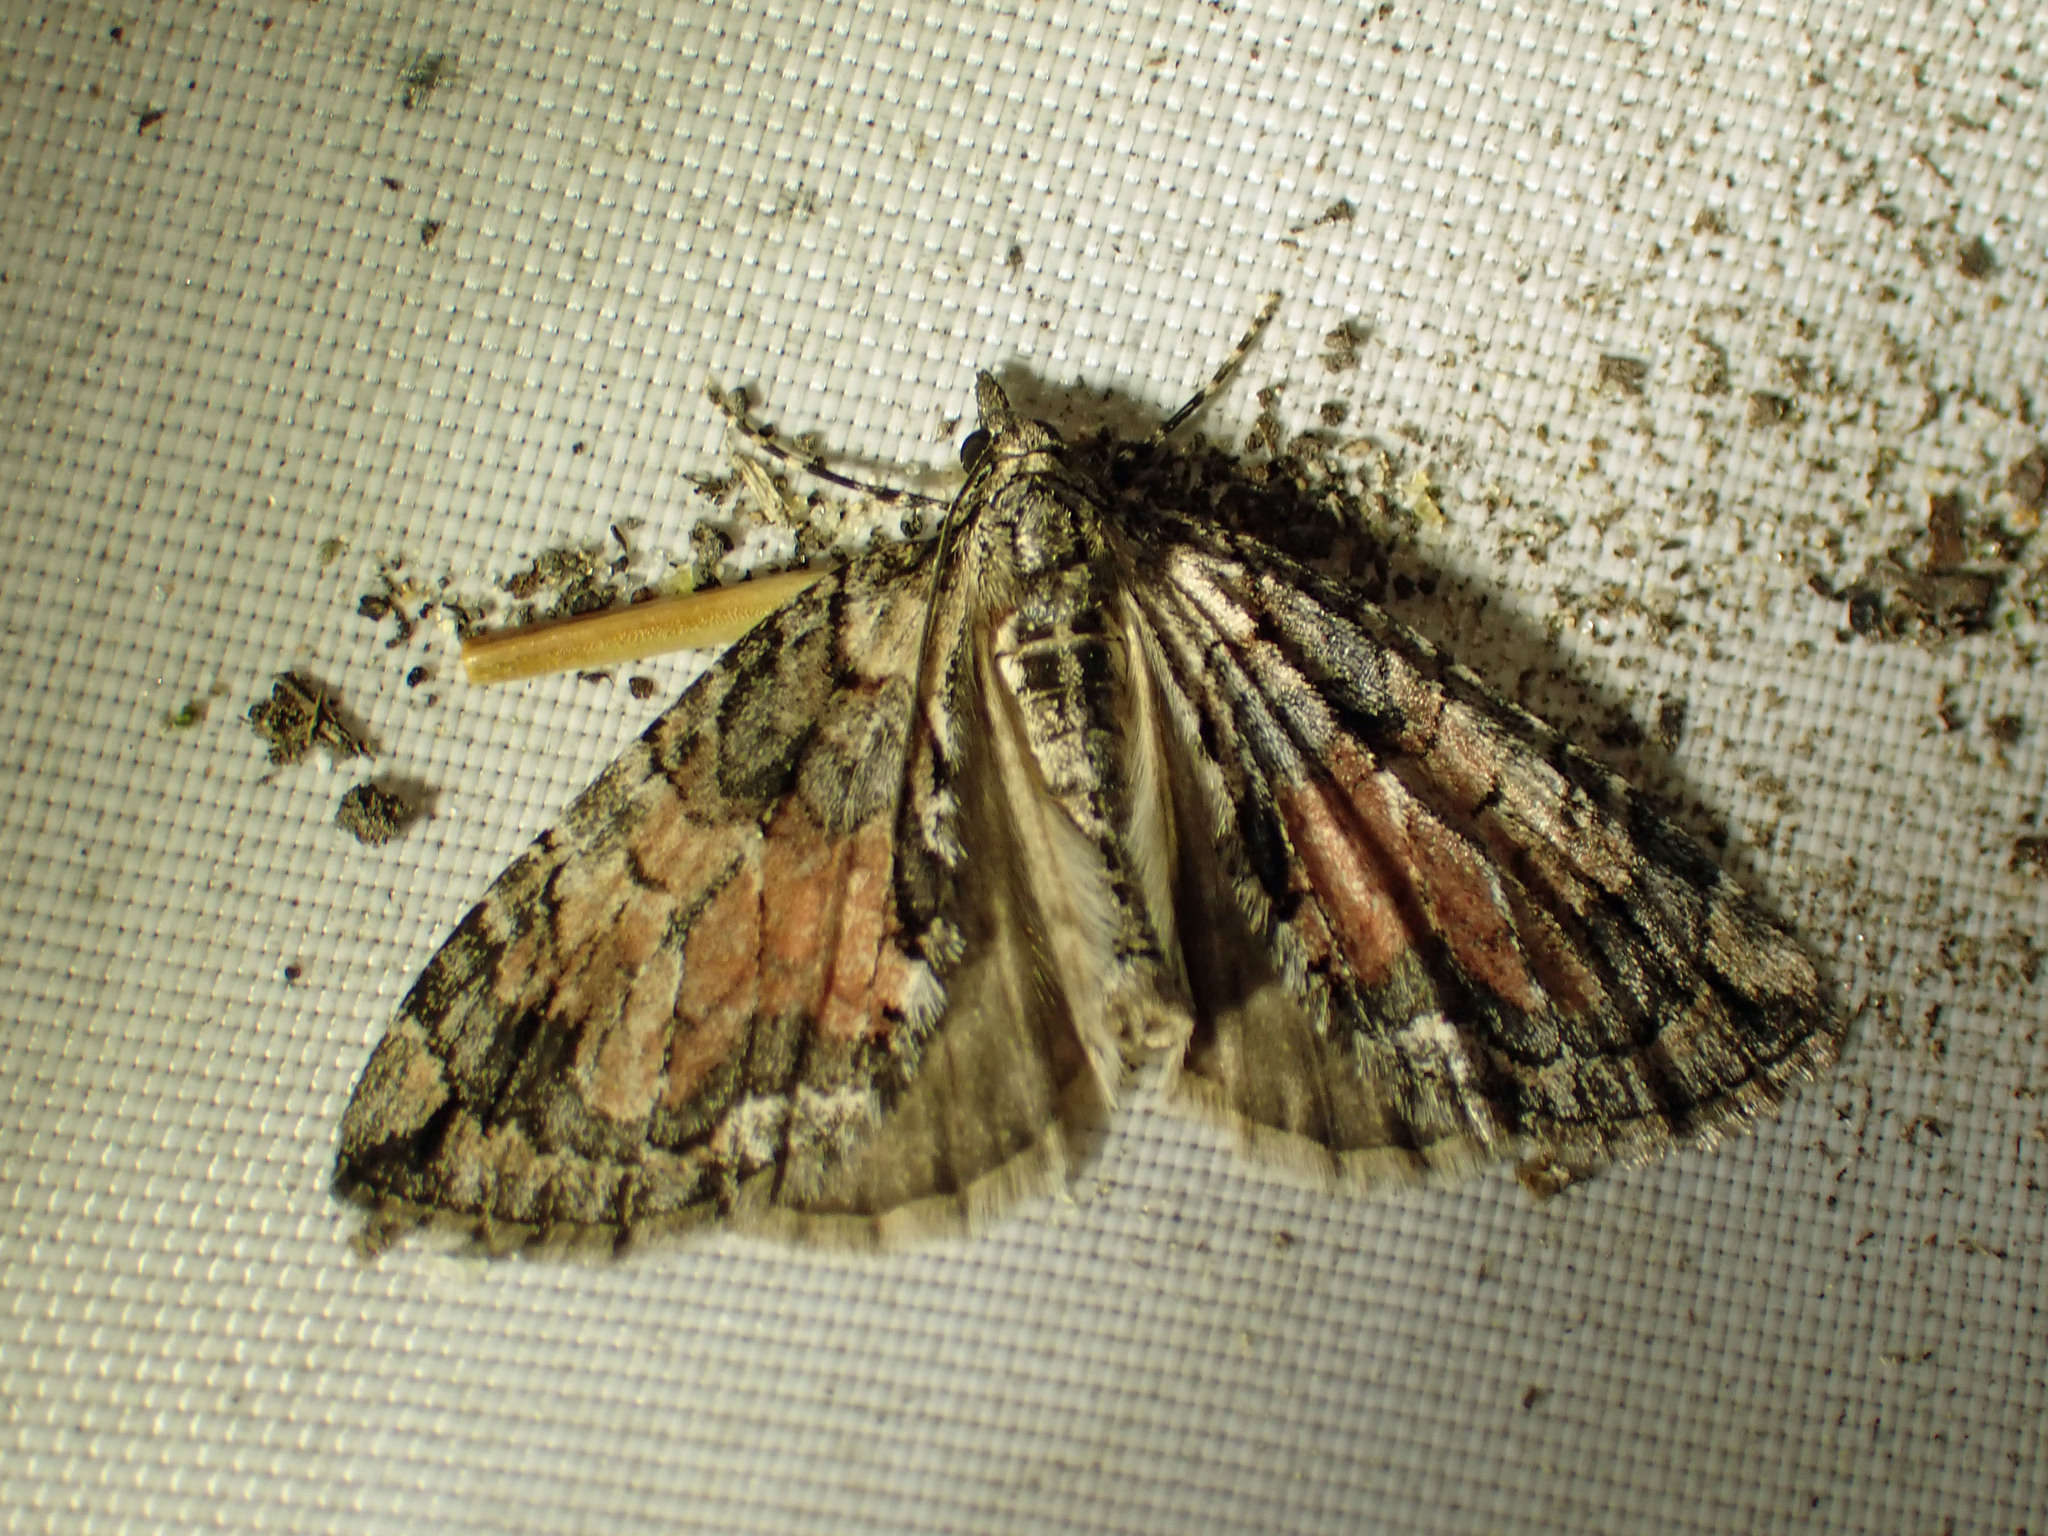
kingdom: Animalia
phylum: Arthropoda
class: Insecta
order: Lepidoptera
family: Geometridae
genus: Hydriomena
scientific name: Hydriomena perfracta
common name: Shattered hydriomena moth
